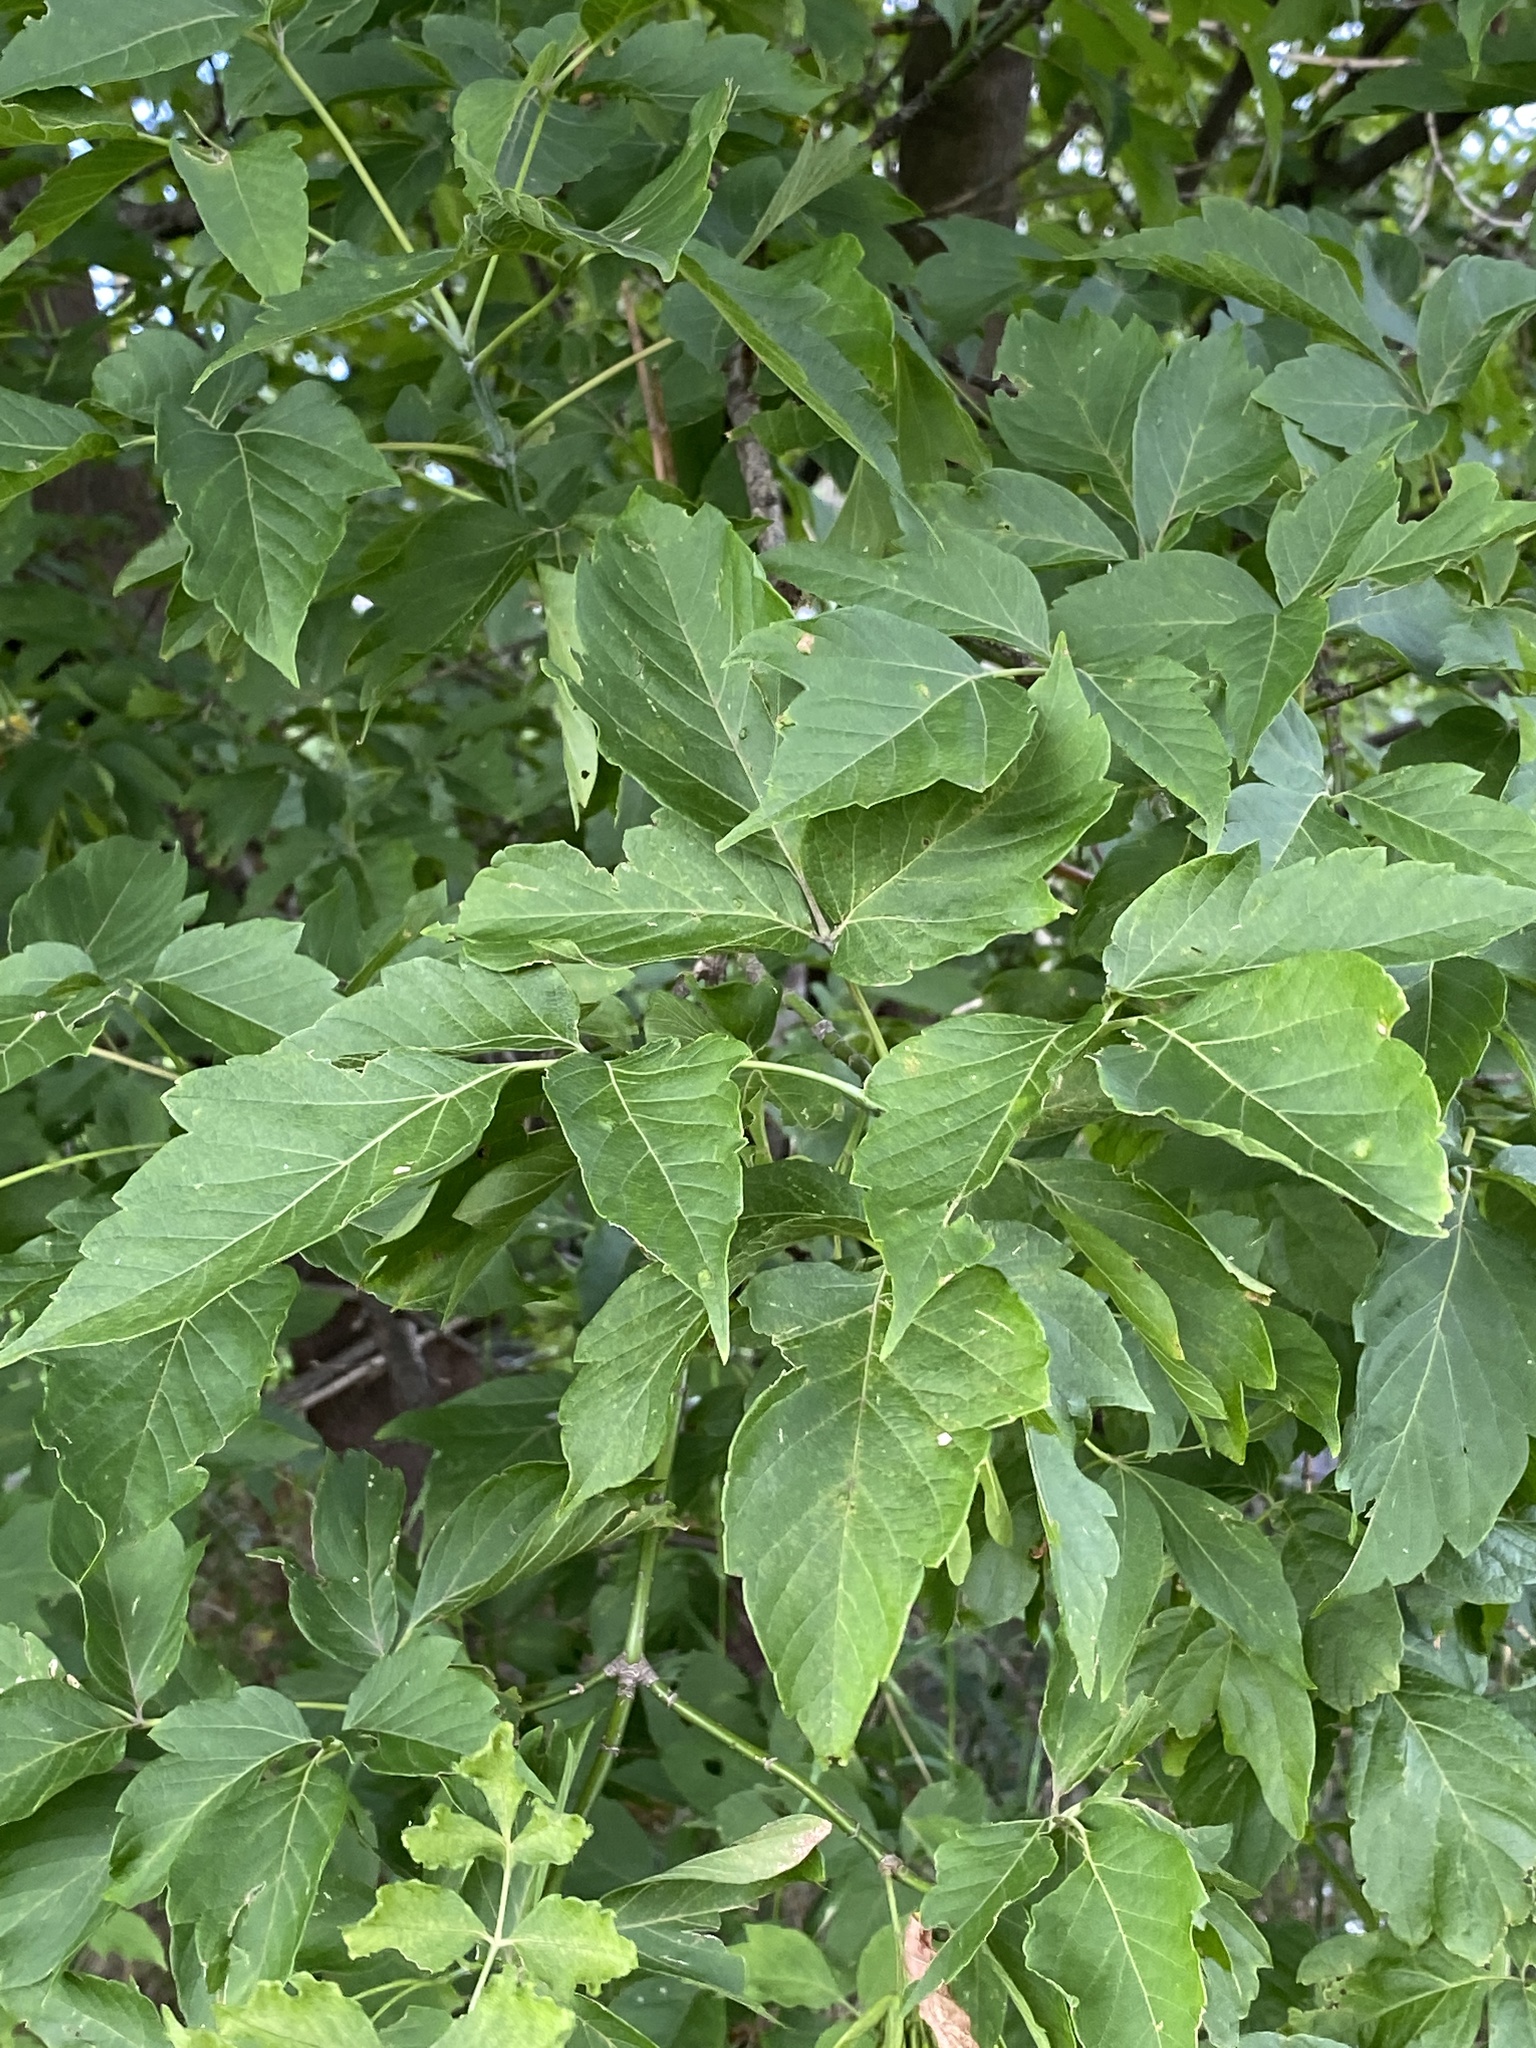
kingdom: Plantae
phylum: Tracheophyta
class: Magnoliopsida
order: Sapindales
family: Sapindaceae
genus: Acer
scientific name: Acer negundo
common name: Ashleaf maple
